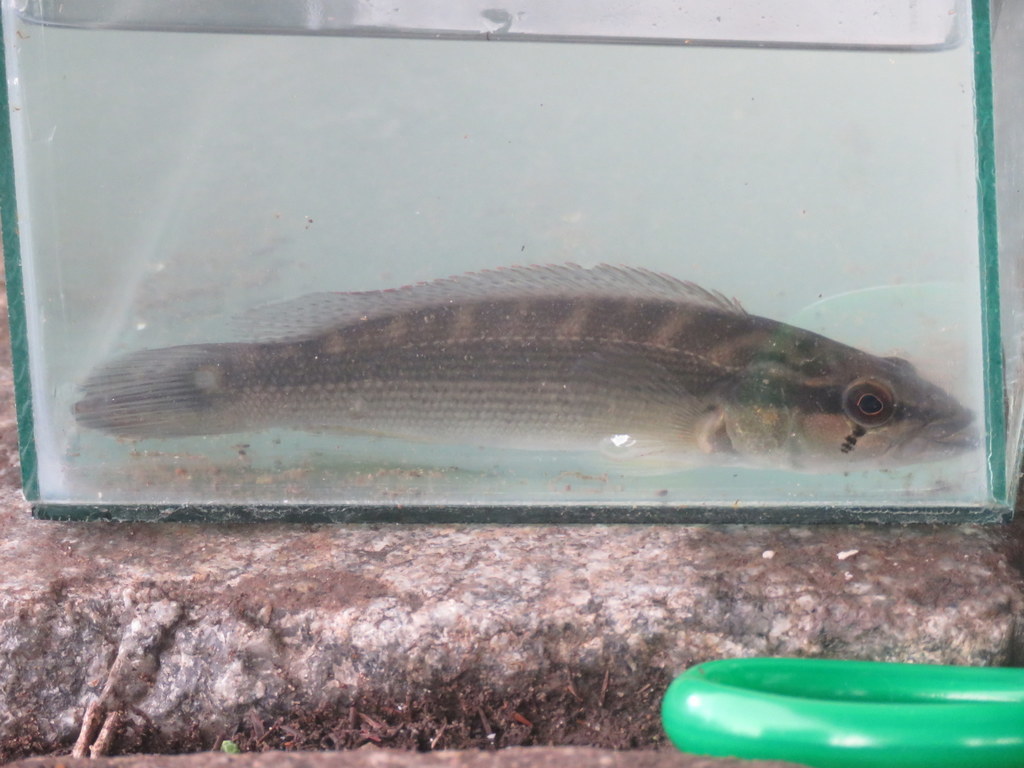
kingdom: Animalia
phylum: Chordata
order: Perciformes
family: Cichlidae
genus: Crenicichla
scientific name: Crenicichla scottii
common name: Pike cichlid
